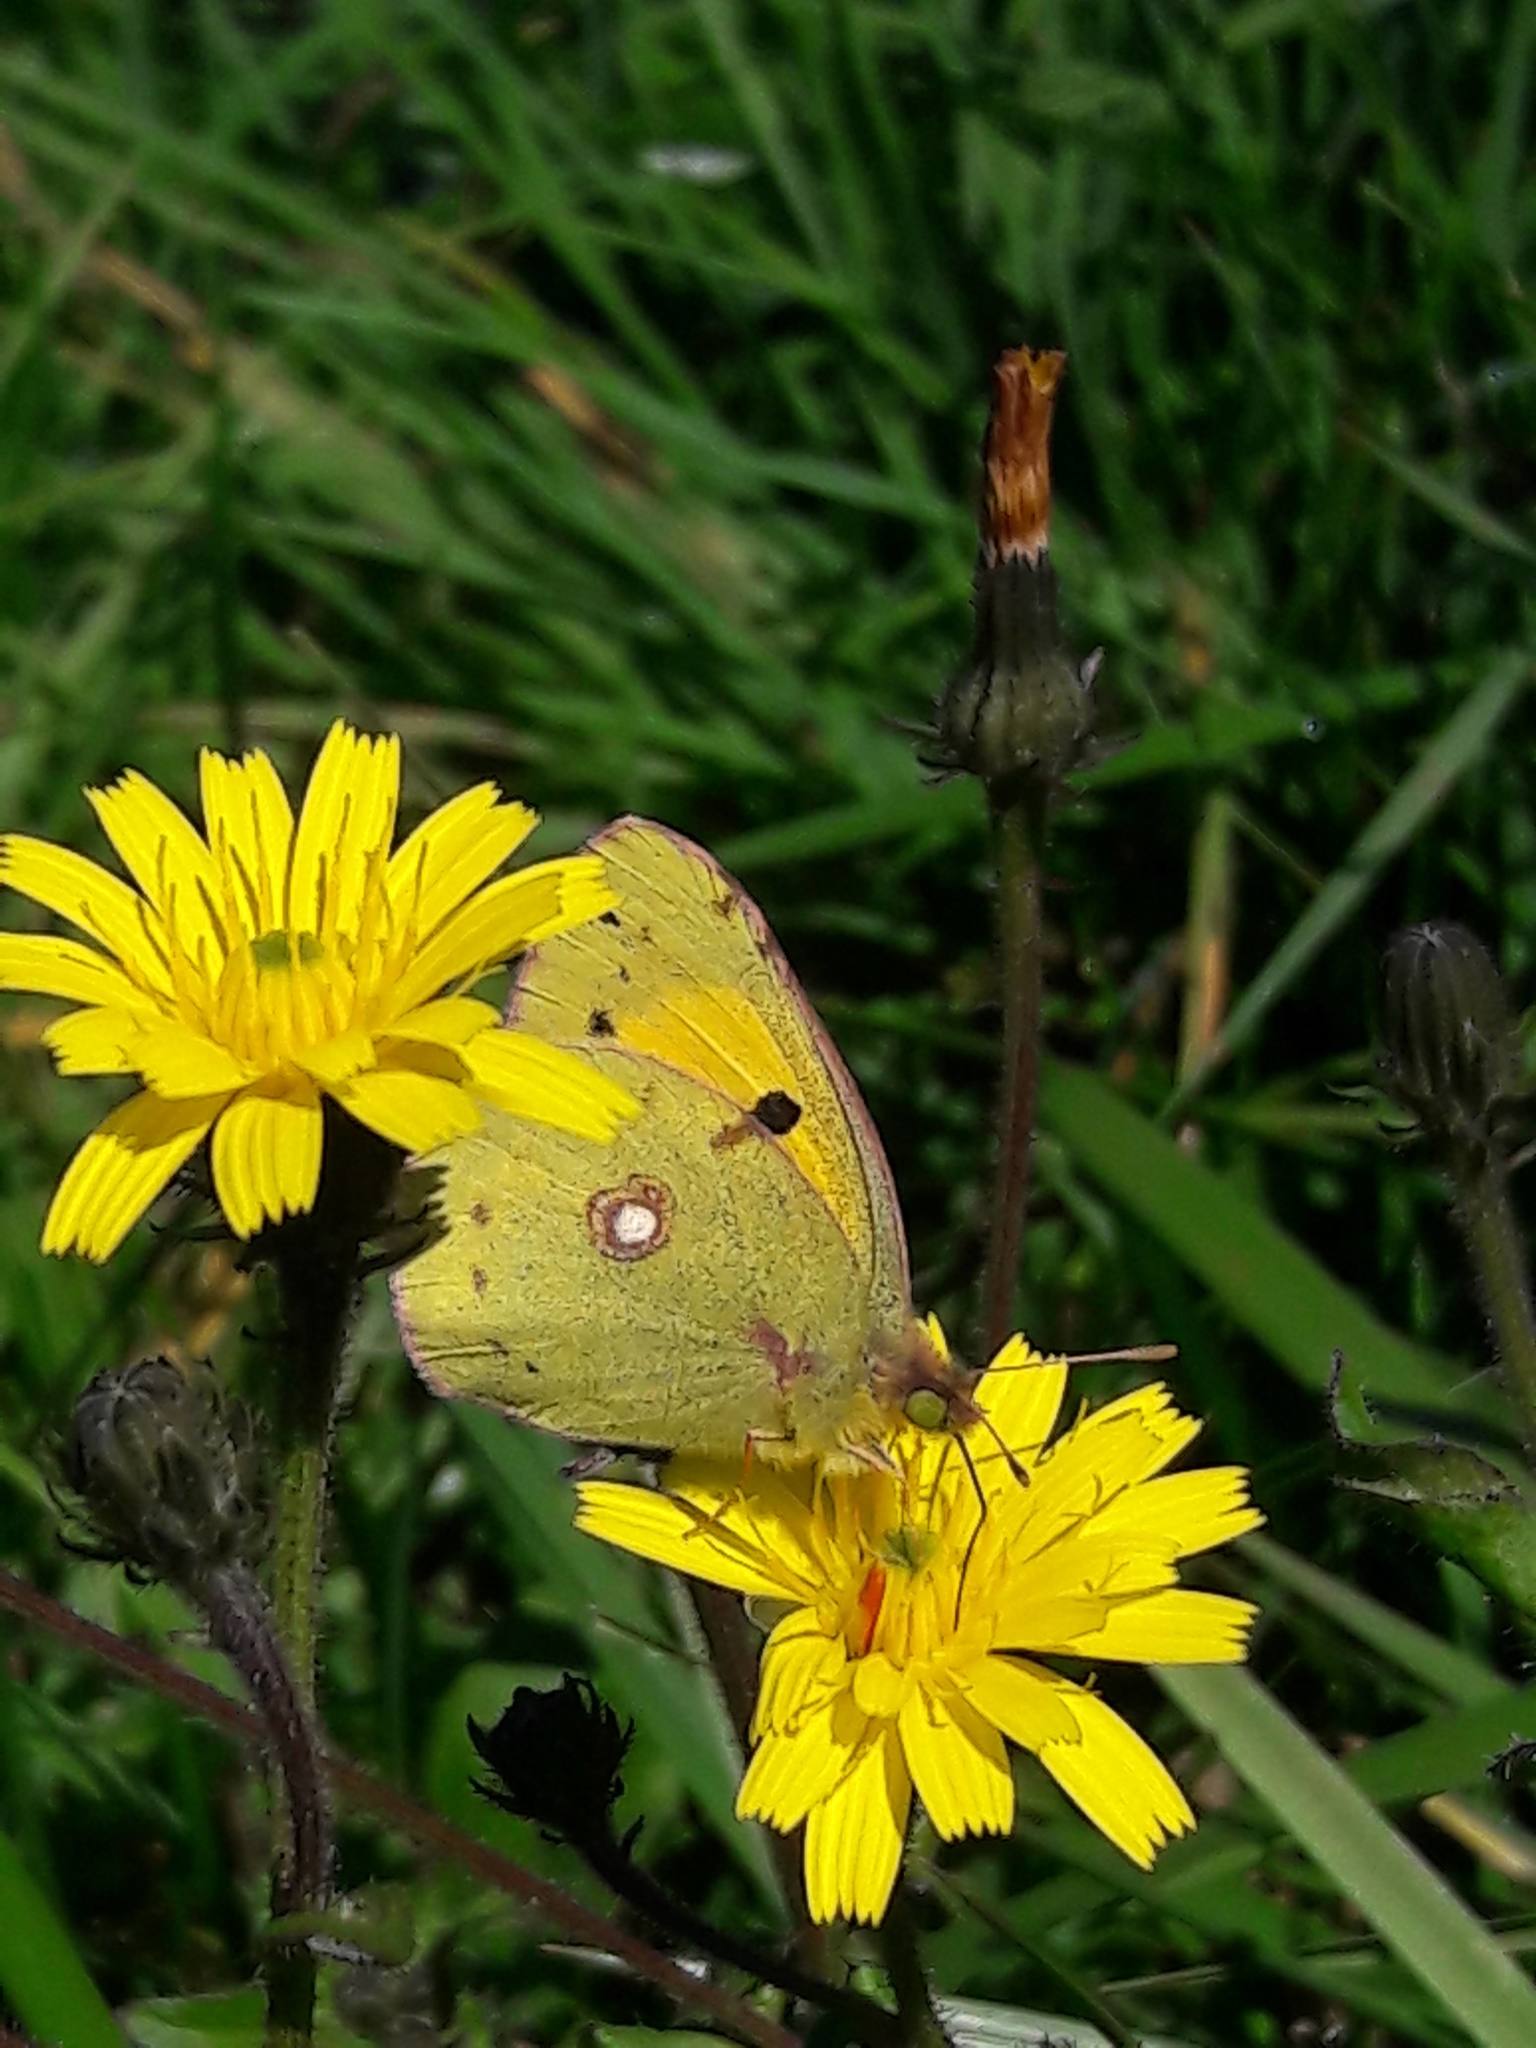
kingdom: Animalia
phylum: Arthropoda
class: Insecta
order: Lepidoptera
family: Pieridae
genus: Colias
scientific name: Colias croceus
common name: Clouded yellow
